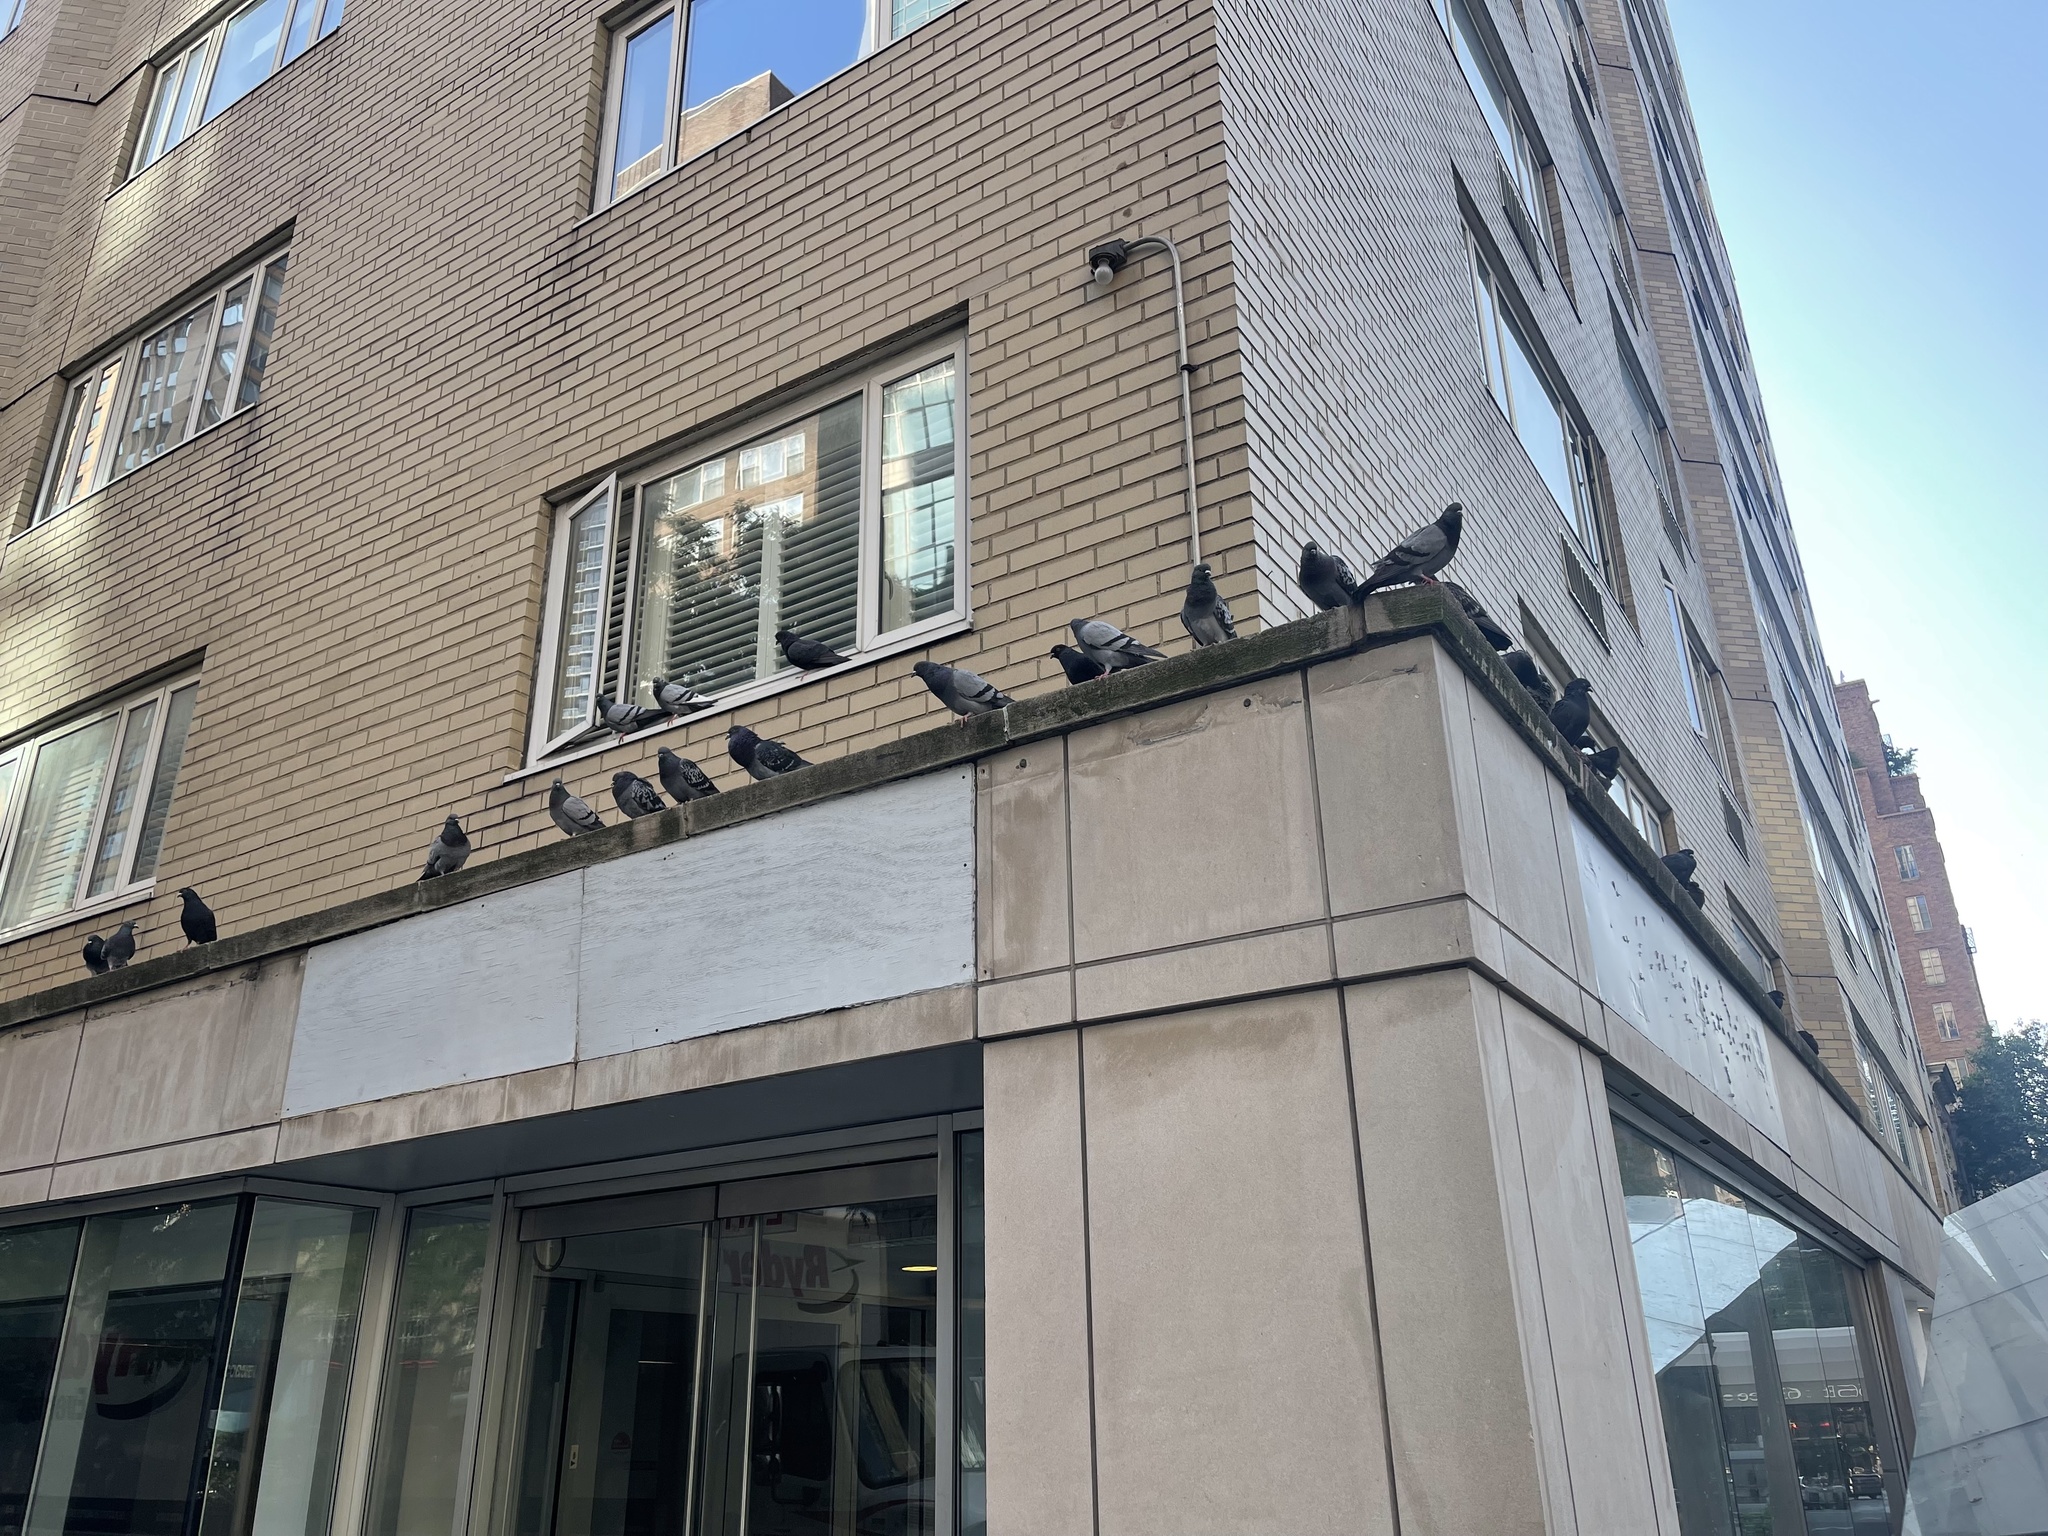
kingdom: Animalia
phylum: Chordata
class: Aves
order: Columbiformes
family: Columbidae
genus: Columba
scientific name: Columba livia
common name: Rock pigeon
